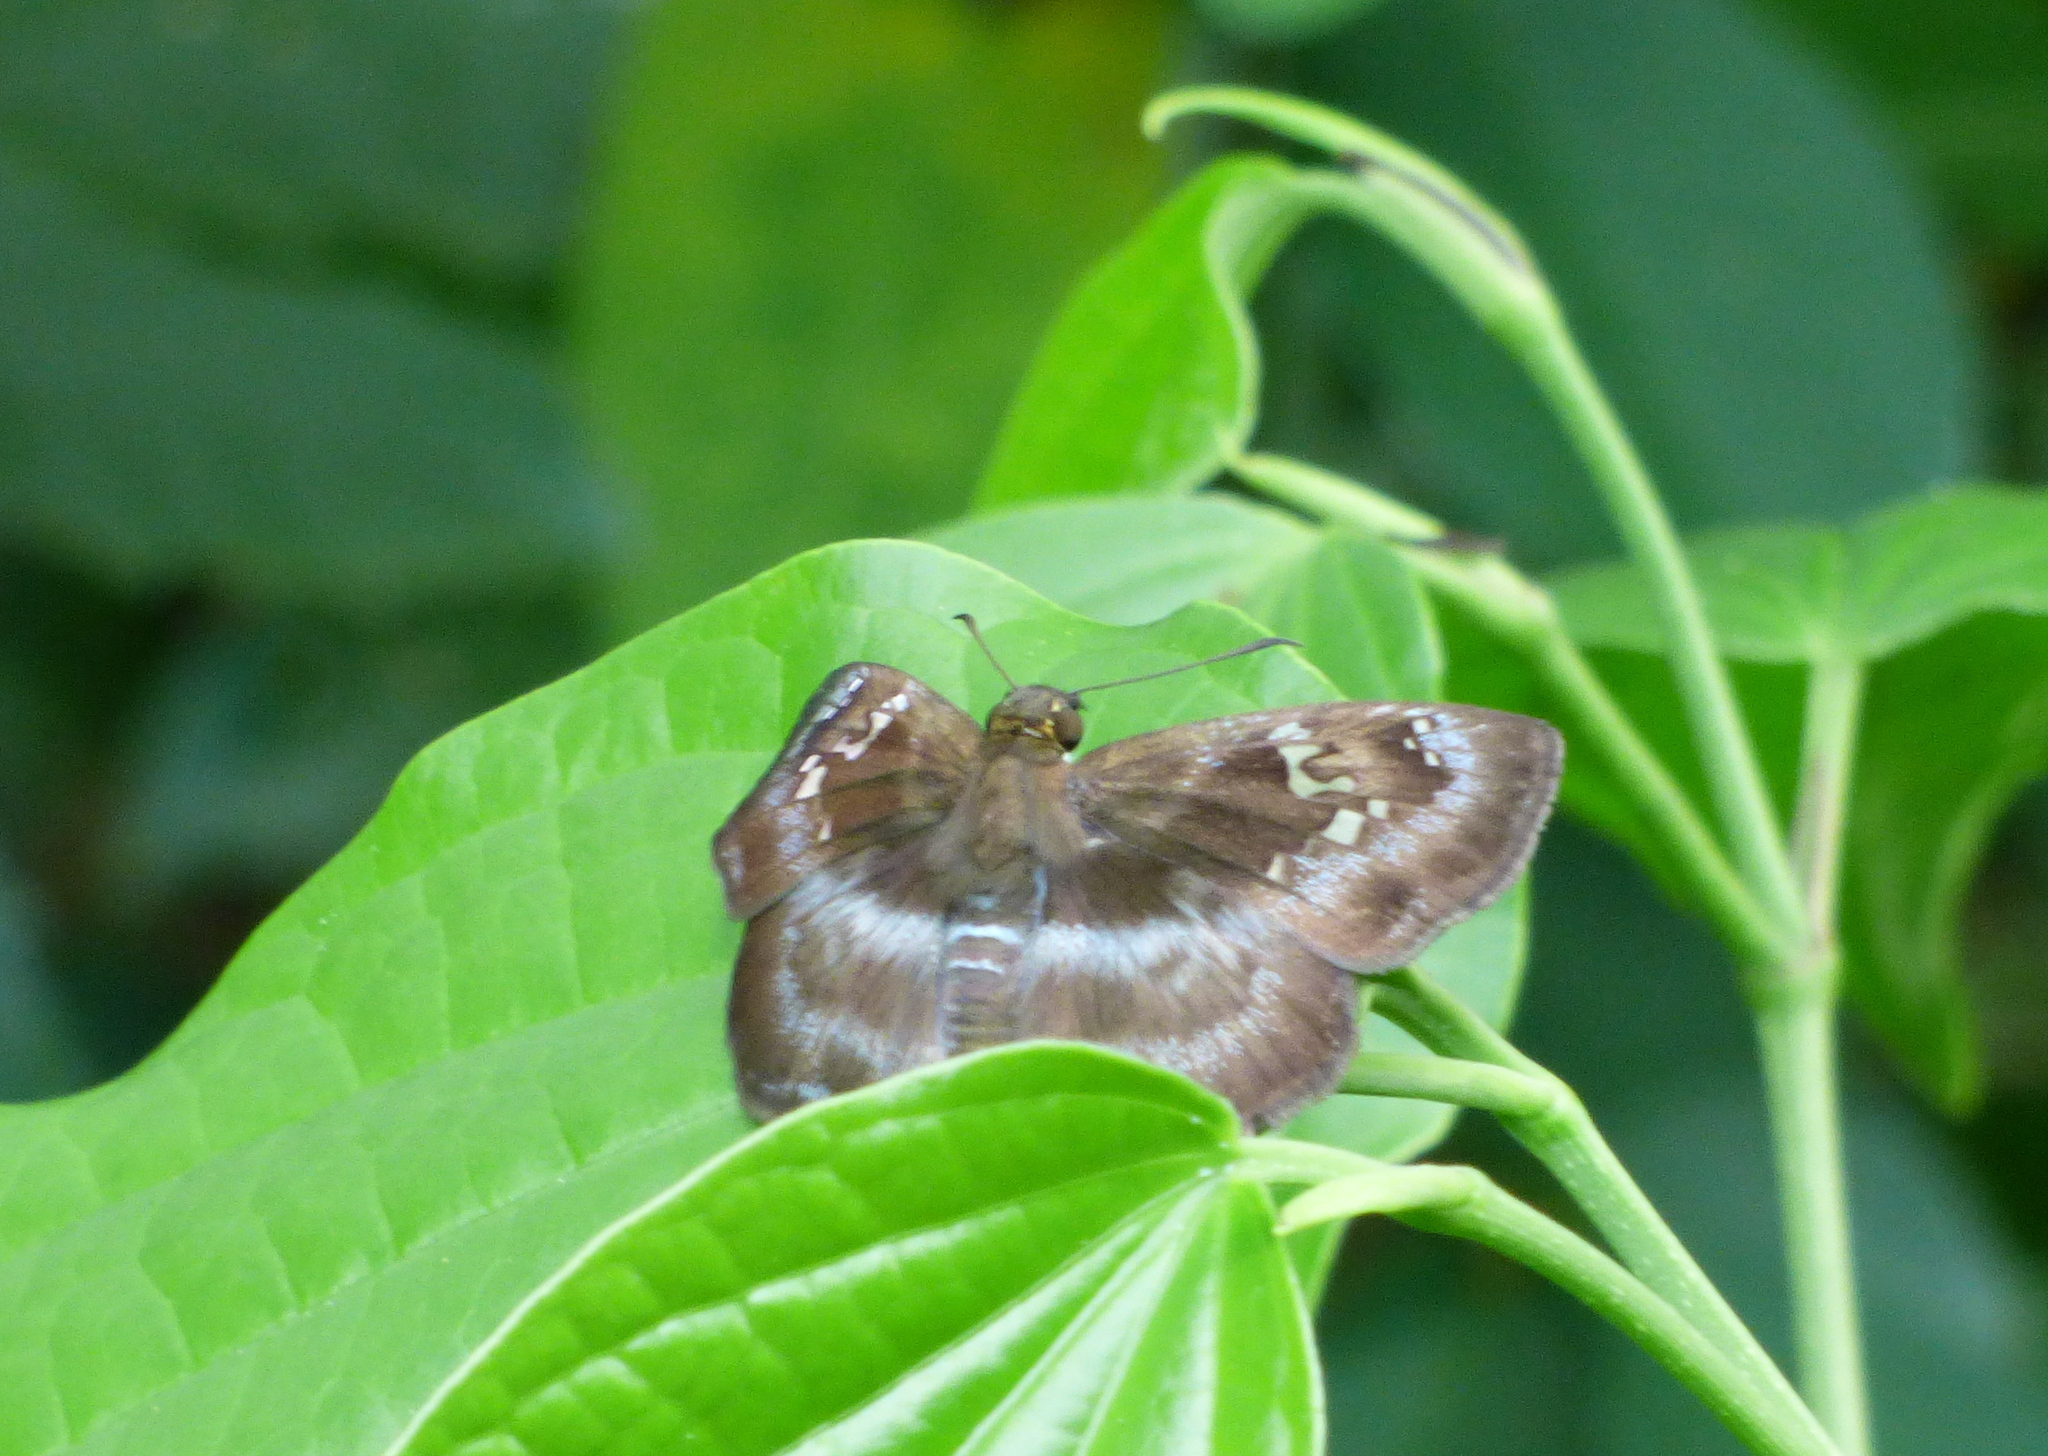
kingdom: Animalia
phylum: Arthropoda
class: Insecta
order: Lepidoptera
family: Hesperiidae
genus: Quadrus
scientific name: Quadrus cerialis
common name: Common blue-skipper
